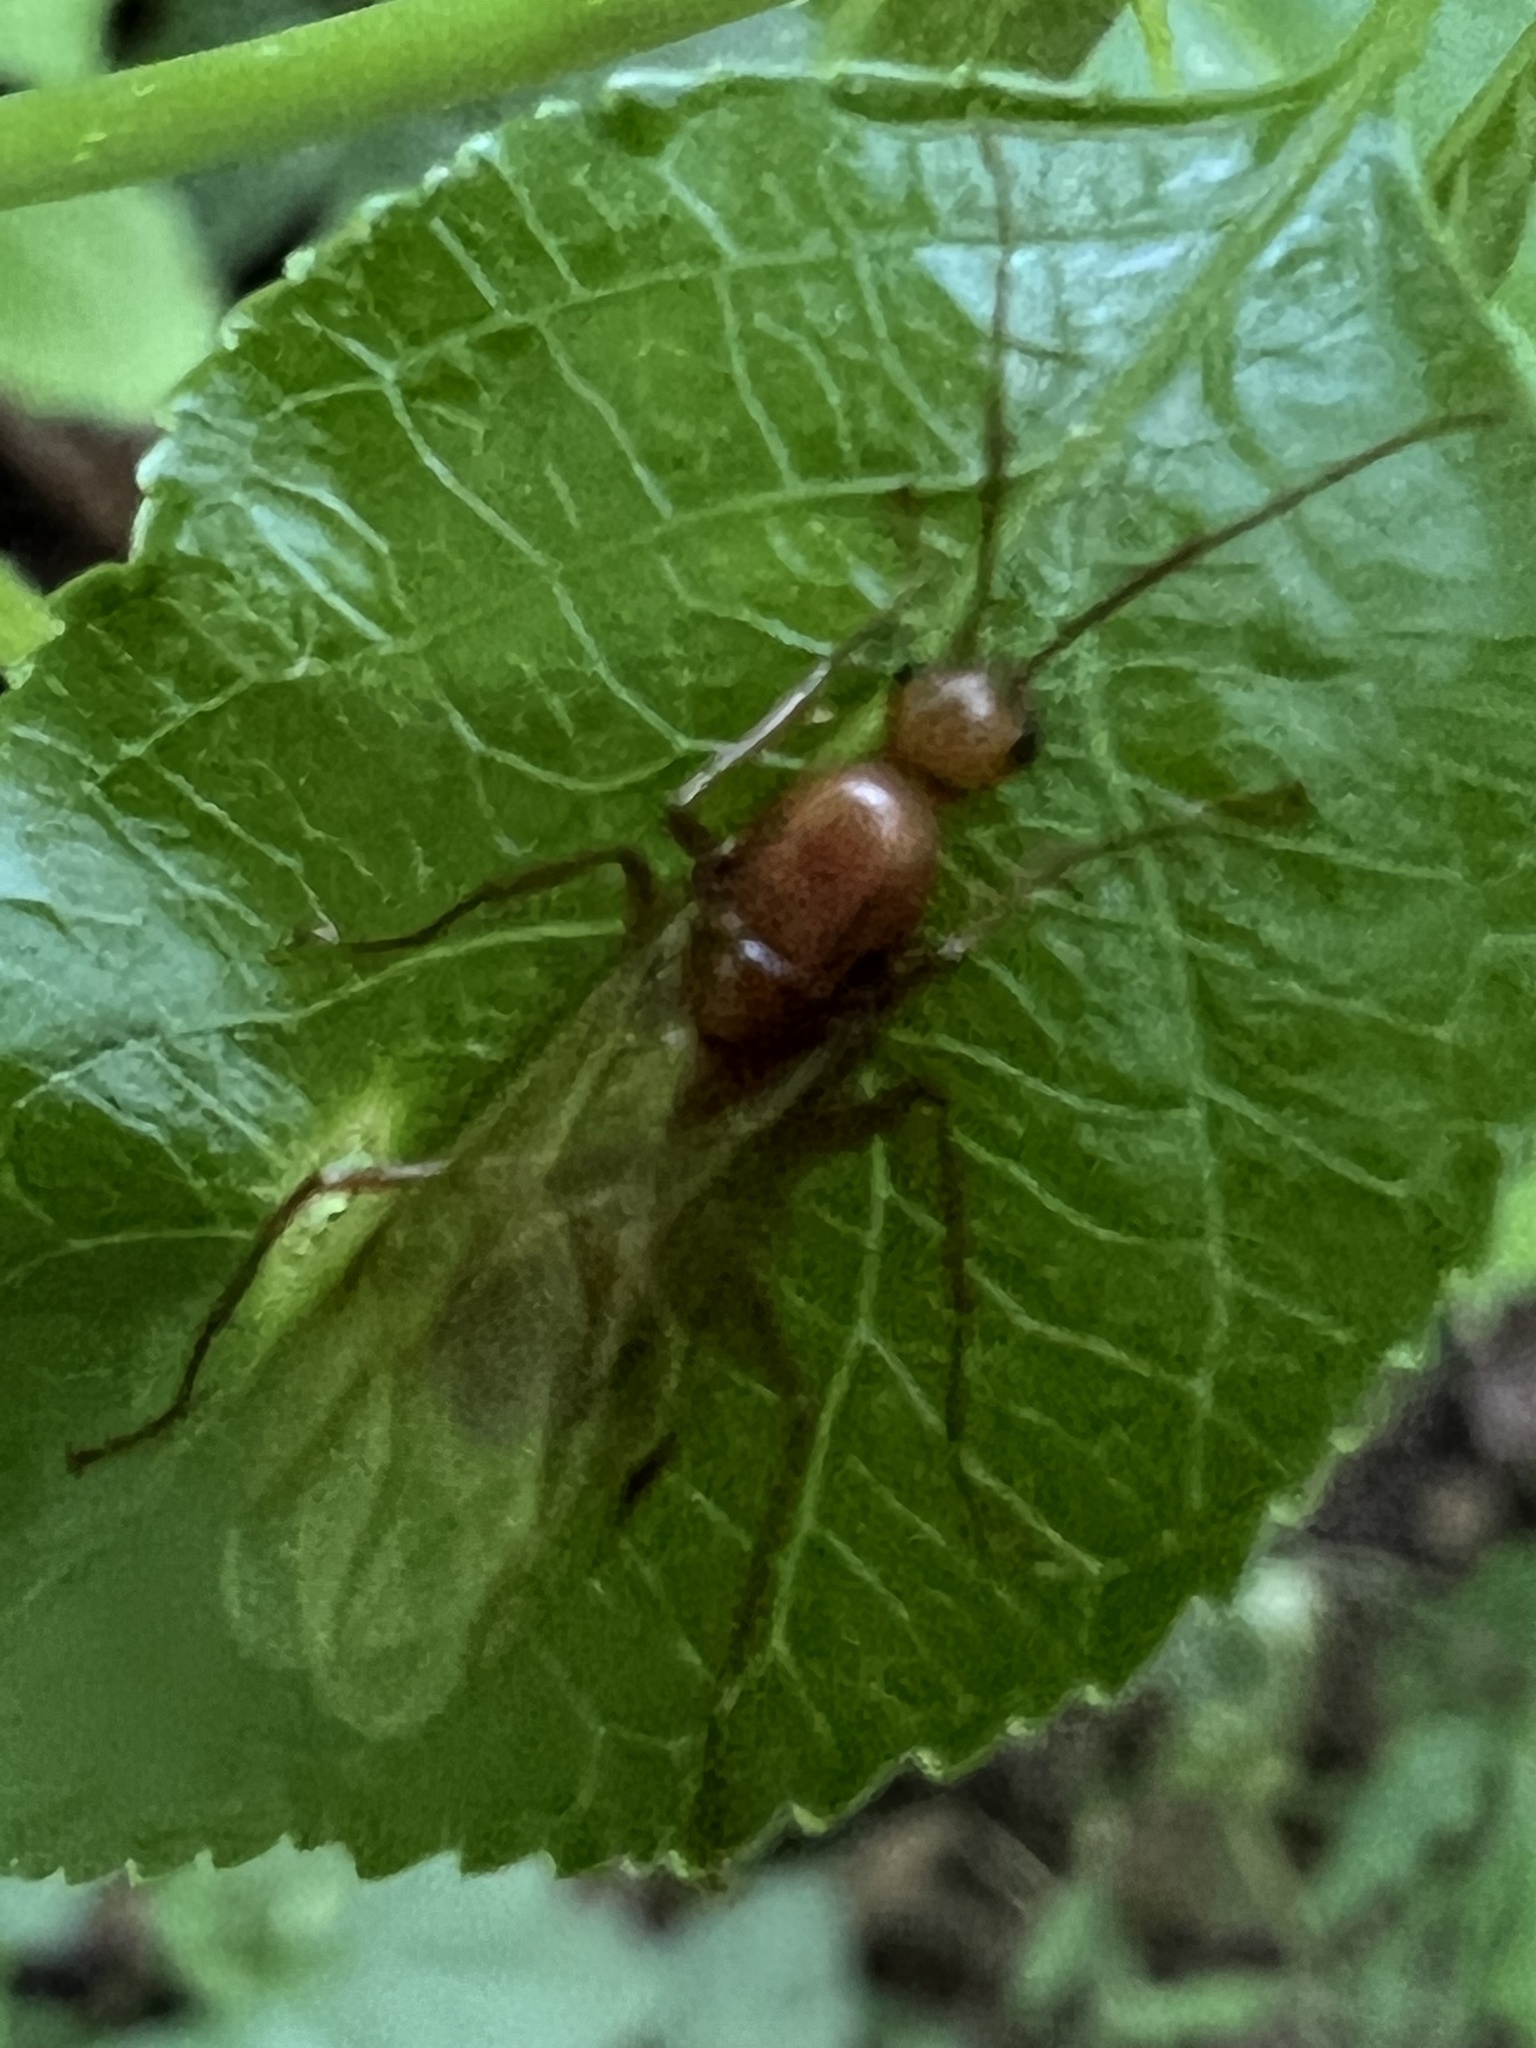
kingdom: Animalia
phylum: Arthropoda
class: Insecta
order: Hymenoptera
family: Formicidae
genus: Camponotus
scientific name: Camponotus castaneus
